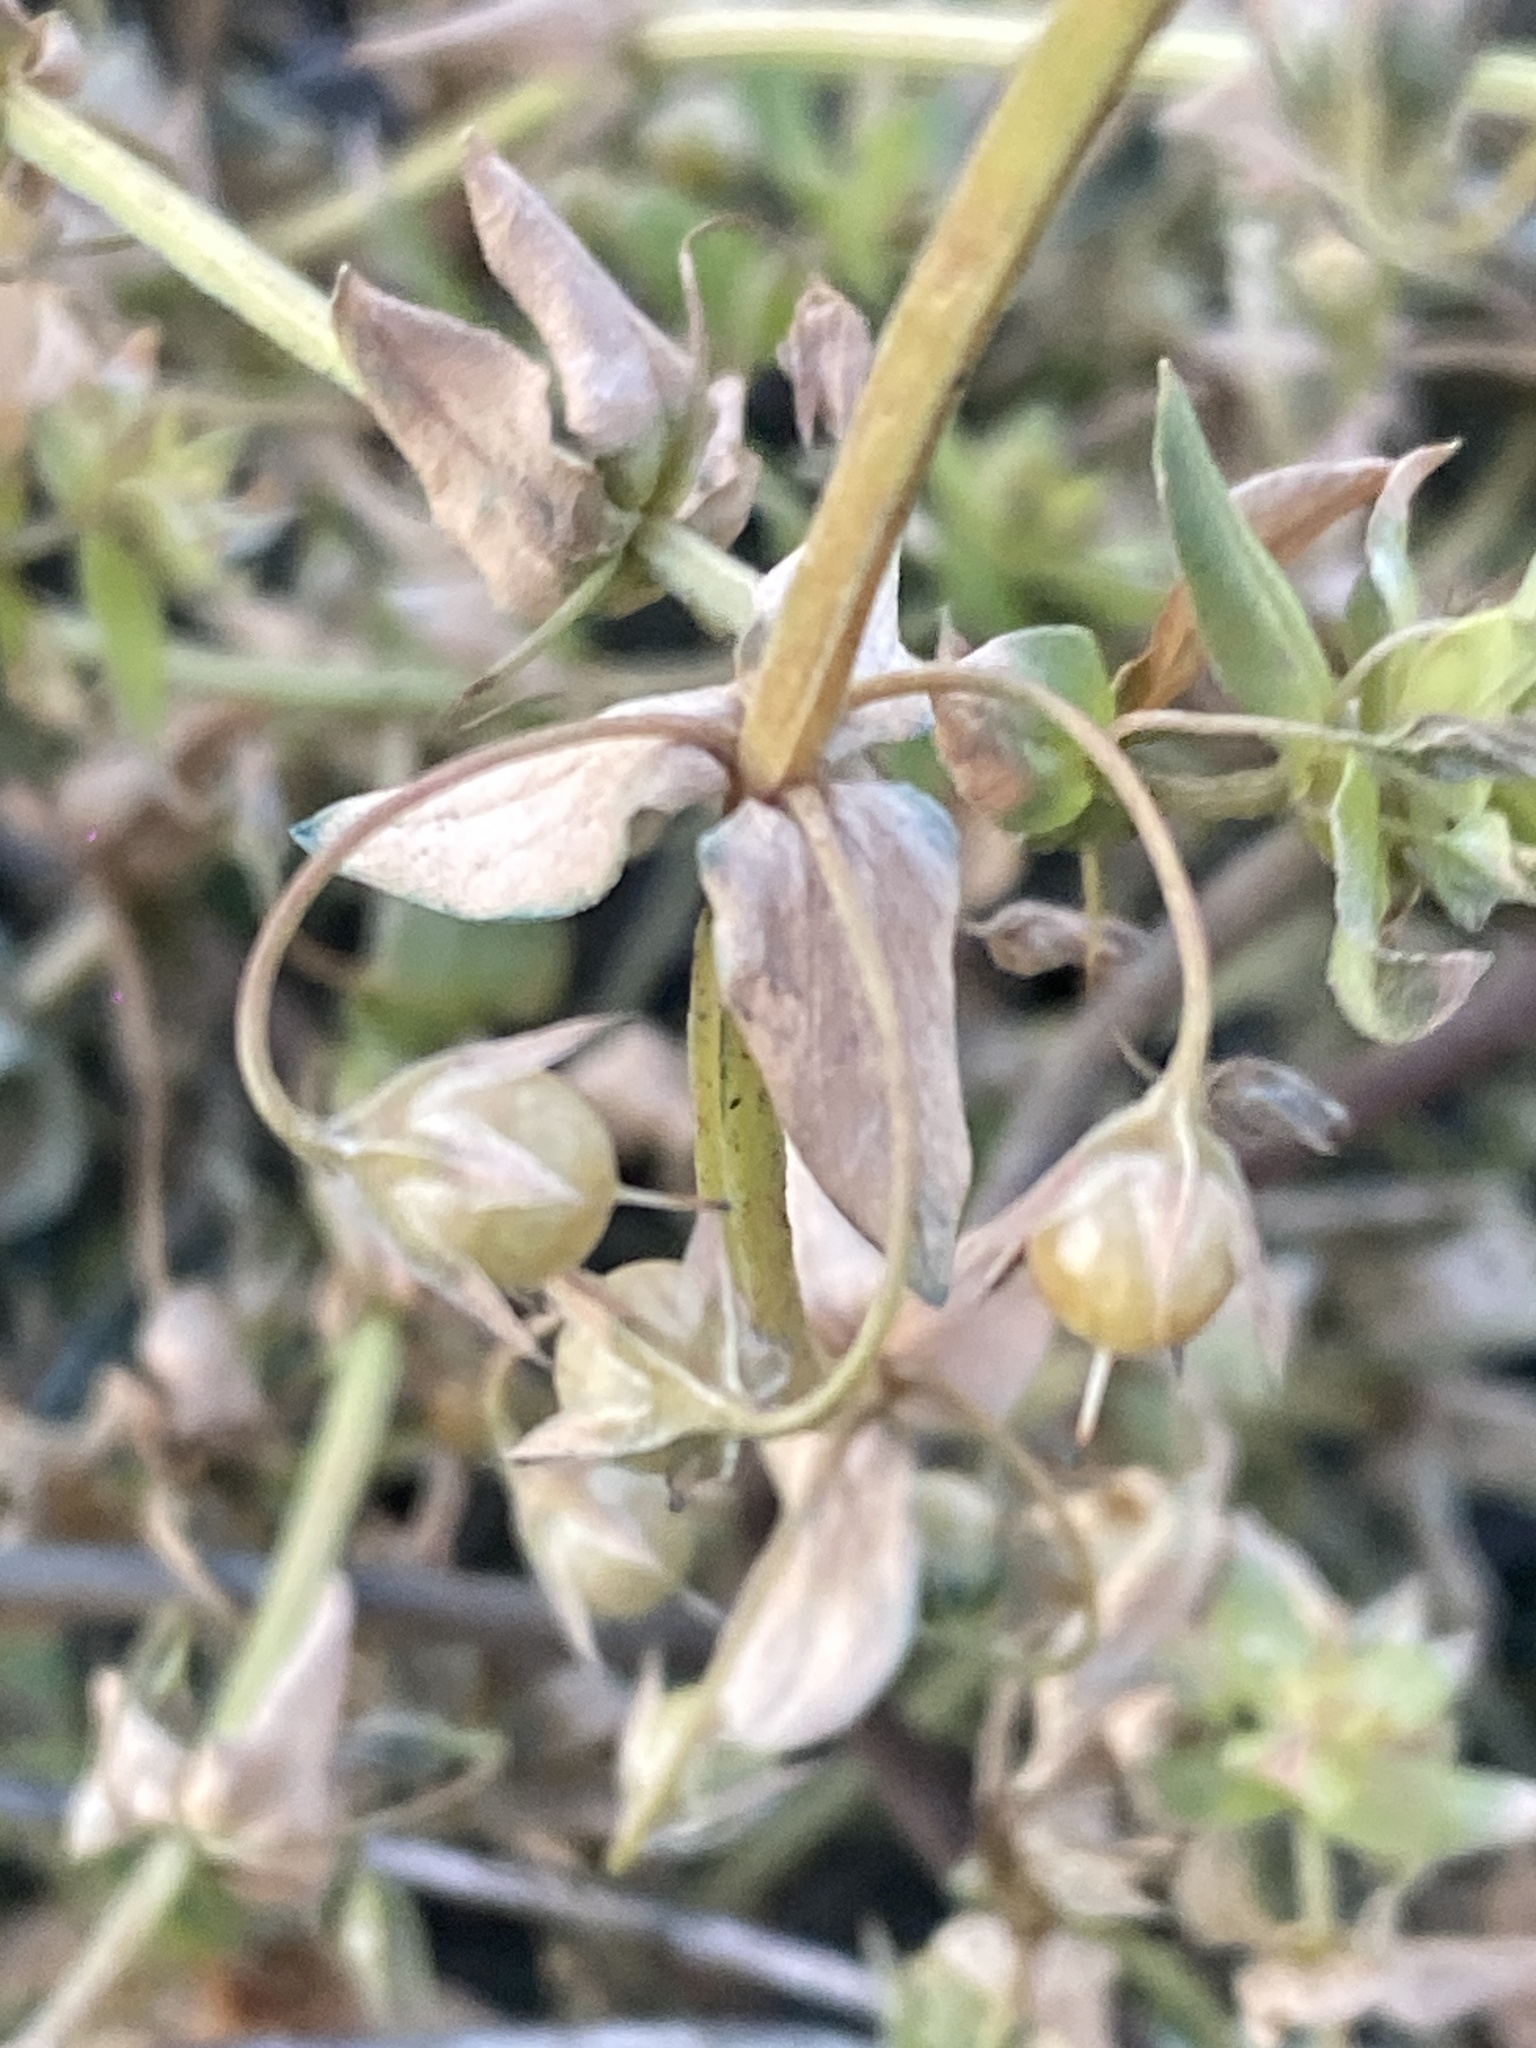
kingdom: Plantae
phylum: Tracheophyta
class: Magnoliopsida
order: Ericales
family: Primulaceae
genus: Lysimachia
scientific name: Lysimachia arvensis
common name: Scarlet pimpernel
